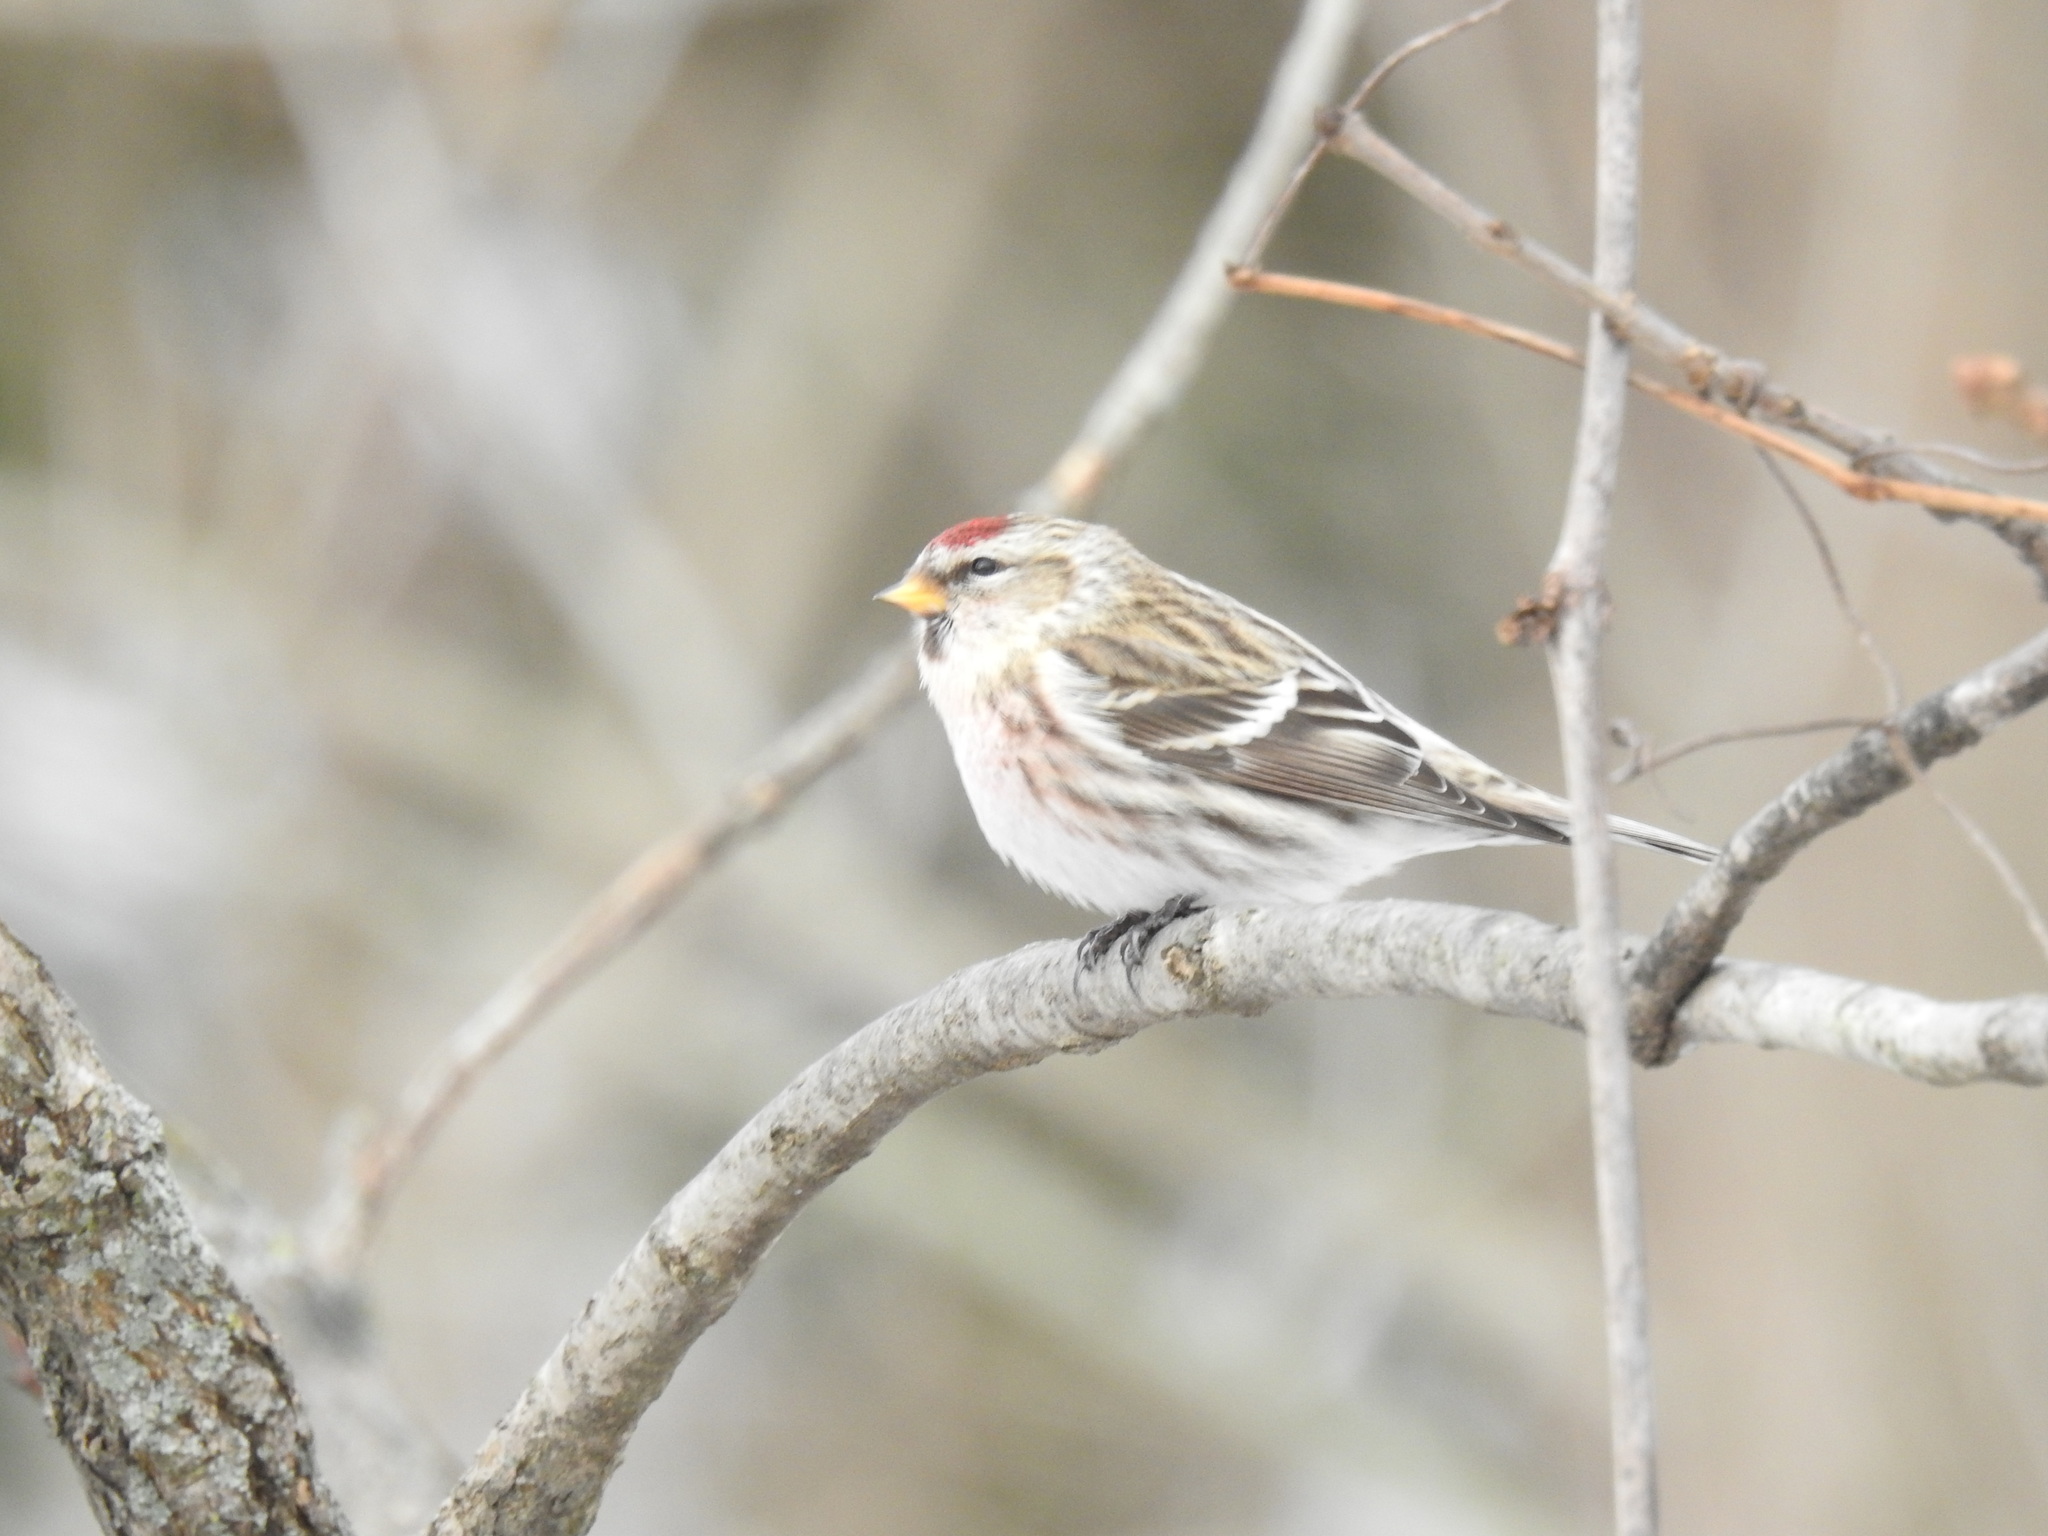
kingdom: Animalia
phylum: Chordata
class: Aves
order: Passeriformes
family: Fringillidae
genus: Acanthis
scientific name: Acanthis flammea
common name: Common redpoll
